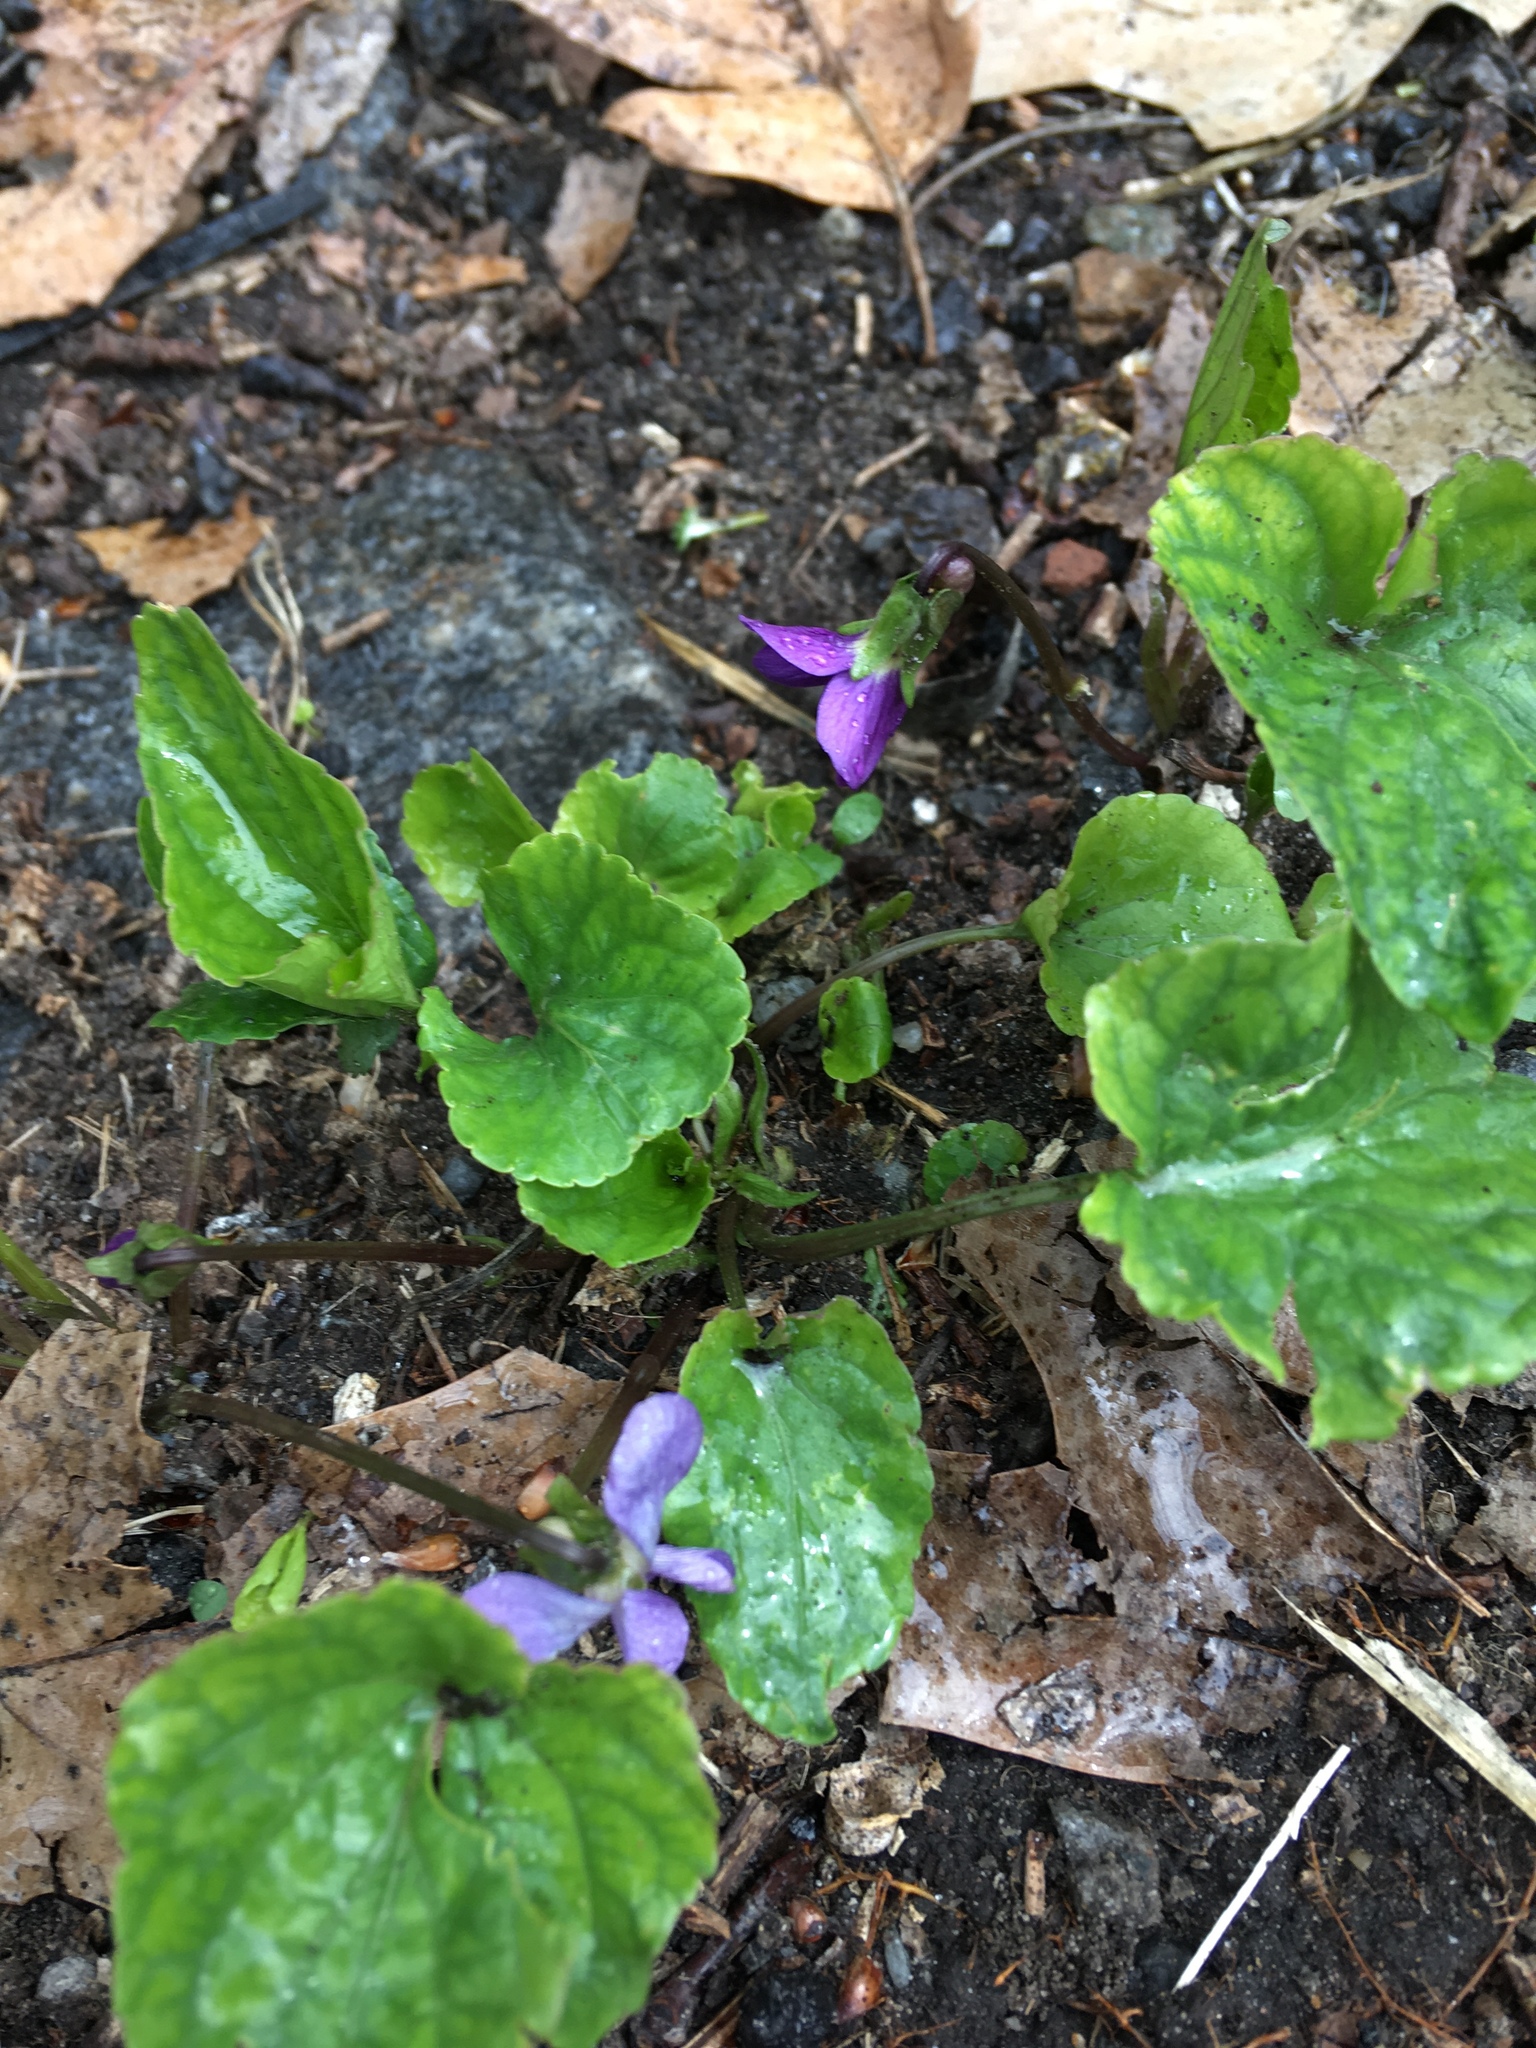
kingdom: Plantae
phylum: Tracheophyta
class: Magnoliopsida
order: Malpighiales
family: Violaceae
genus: Viola
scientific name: Viola sororia
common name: Dooryard violet
